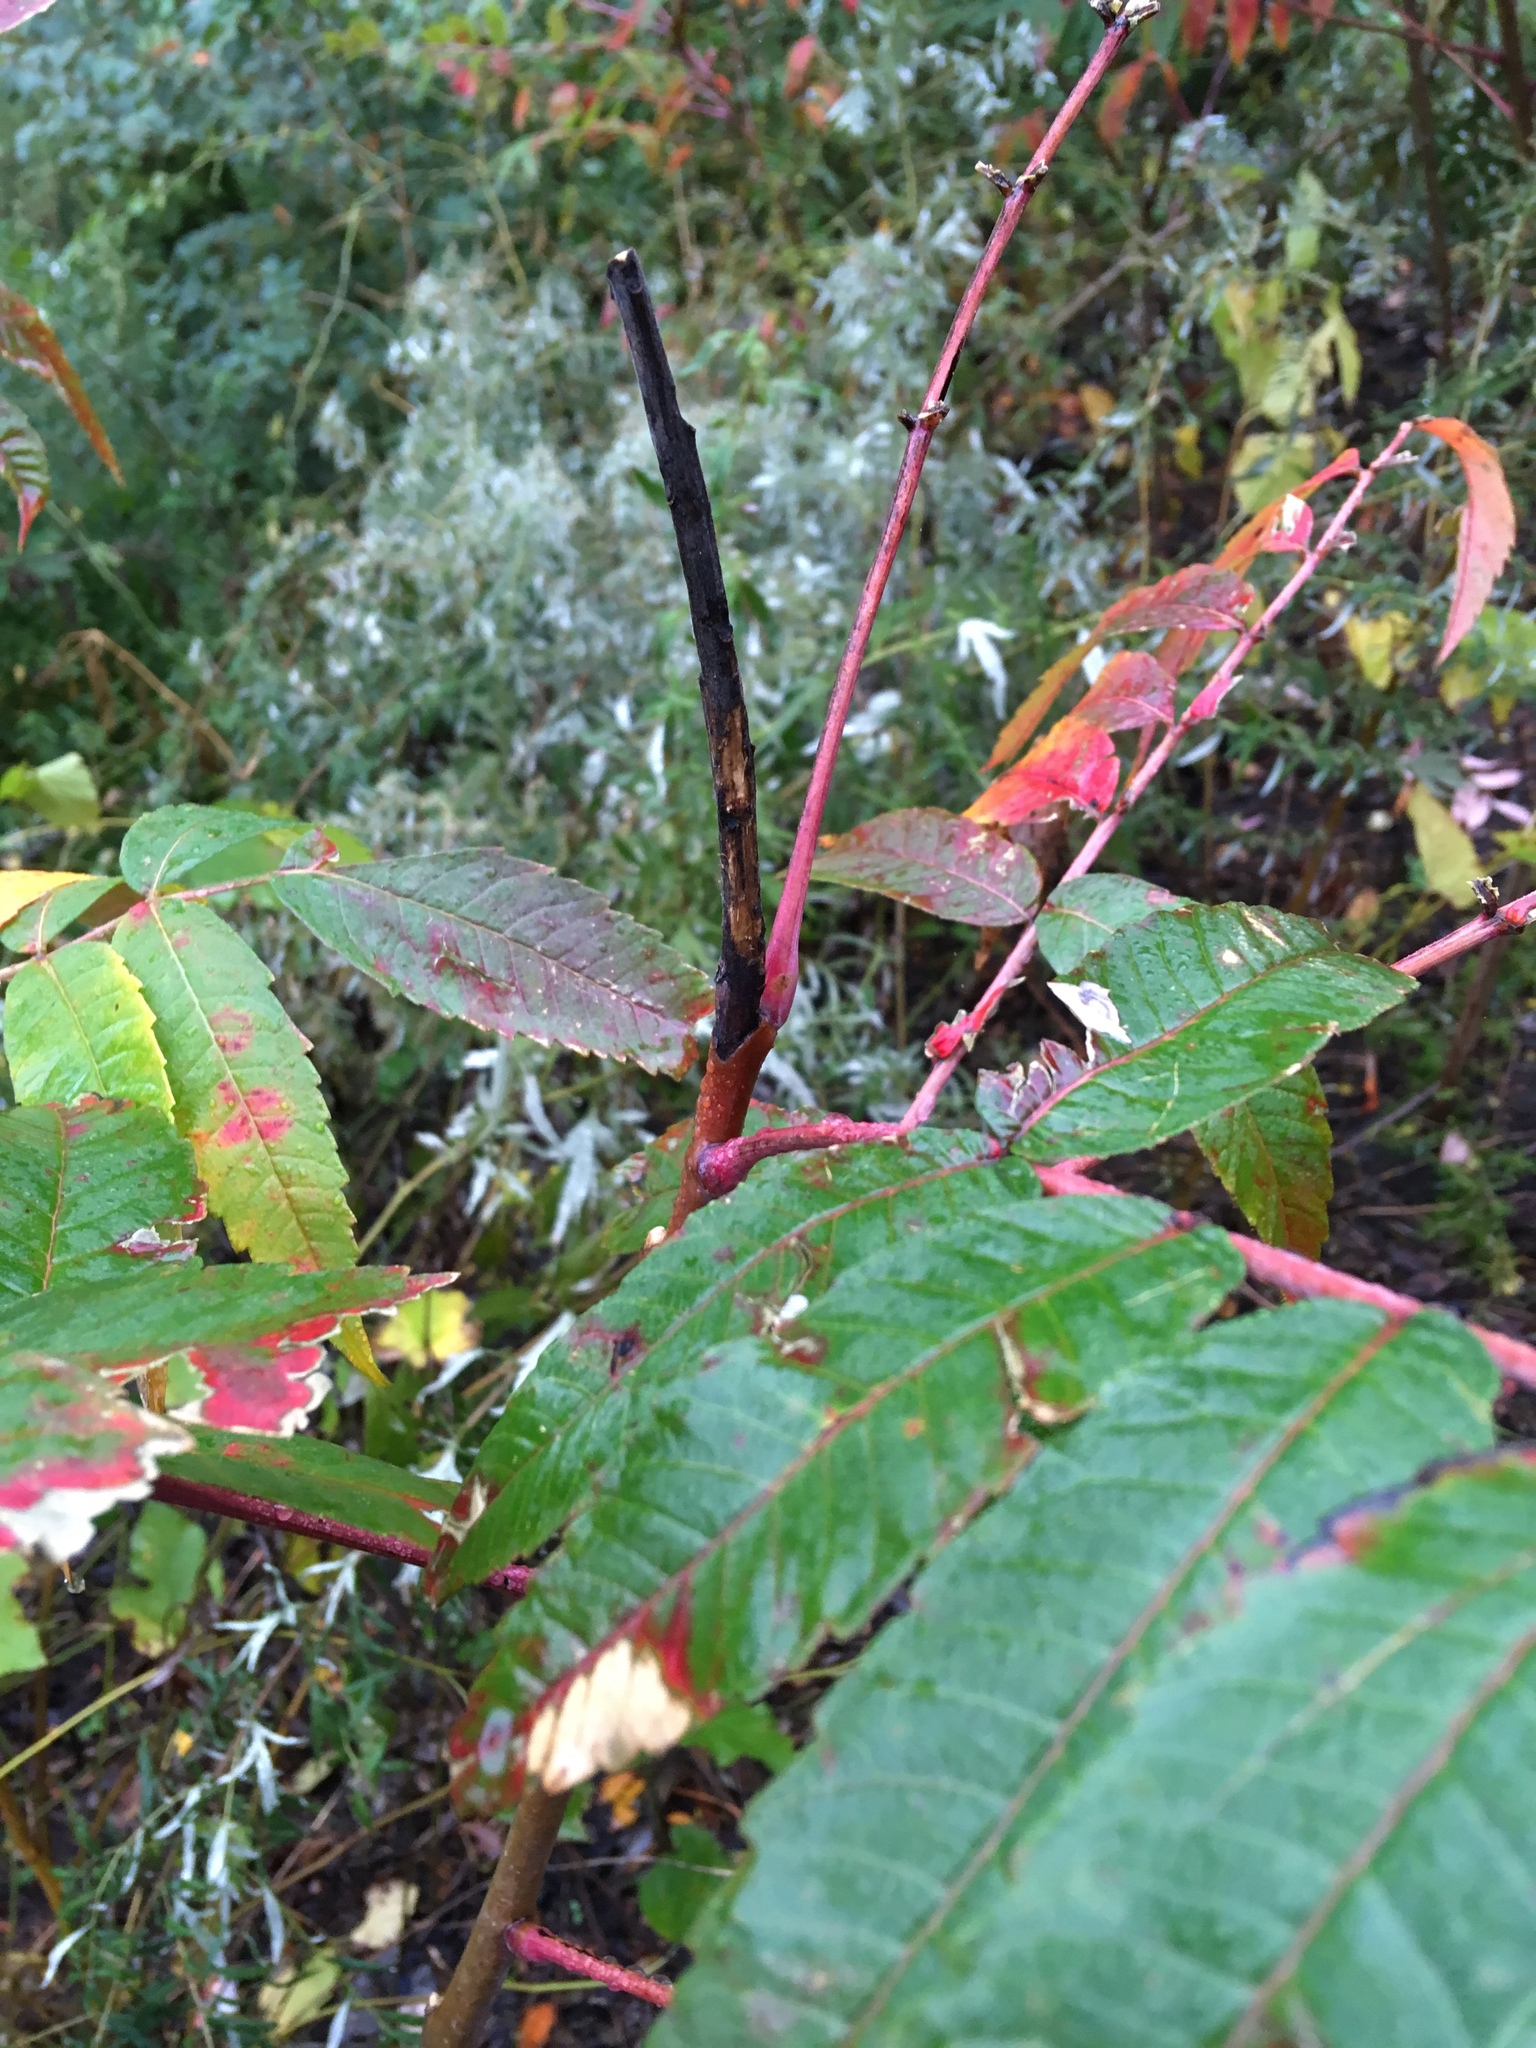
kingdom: Plantae
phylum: Tracheophyta
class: Magnoliopsida
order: Sapindales
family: Anacardiaceae
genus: Rhus
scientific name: Rhus glabra
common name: Scarlet sumac
